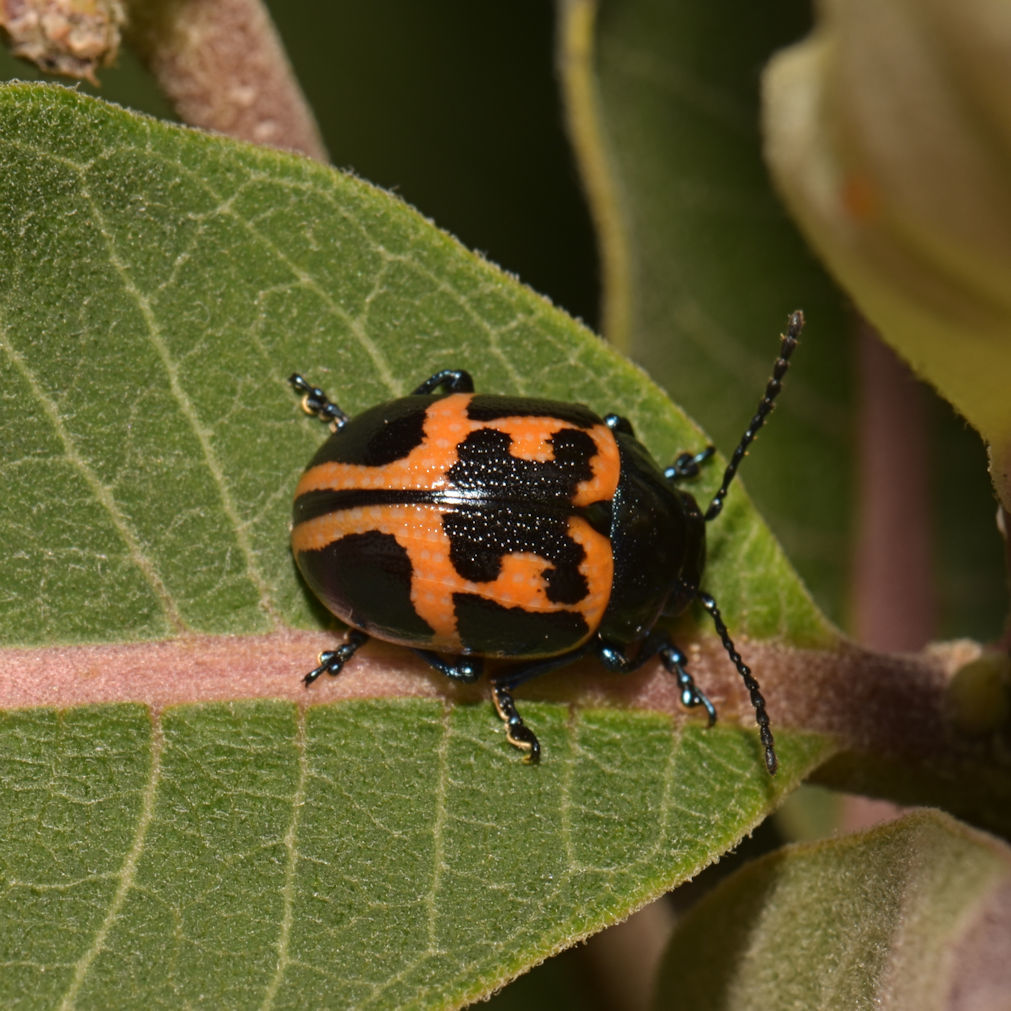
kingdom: Animalia
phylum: Arthropoda
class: Insecta
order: Coleoptera
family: Chrysomelidae
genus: Labidomera
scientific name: Labidomera clivicollis
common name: Swamp milkweed leaf beetle
